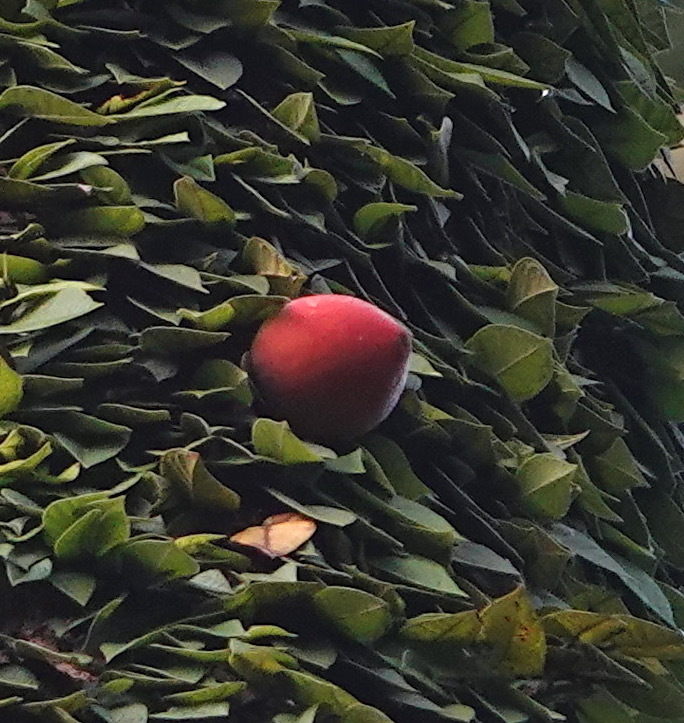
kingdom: Plantae
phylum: Tracheophyta
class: Magnoliopsida
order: Rosales
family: Moraceae
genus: Ficus
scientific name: Ficus barba-jovis
